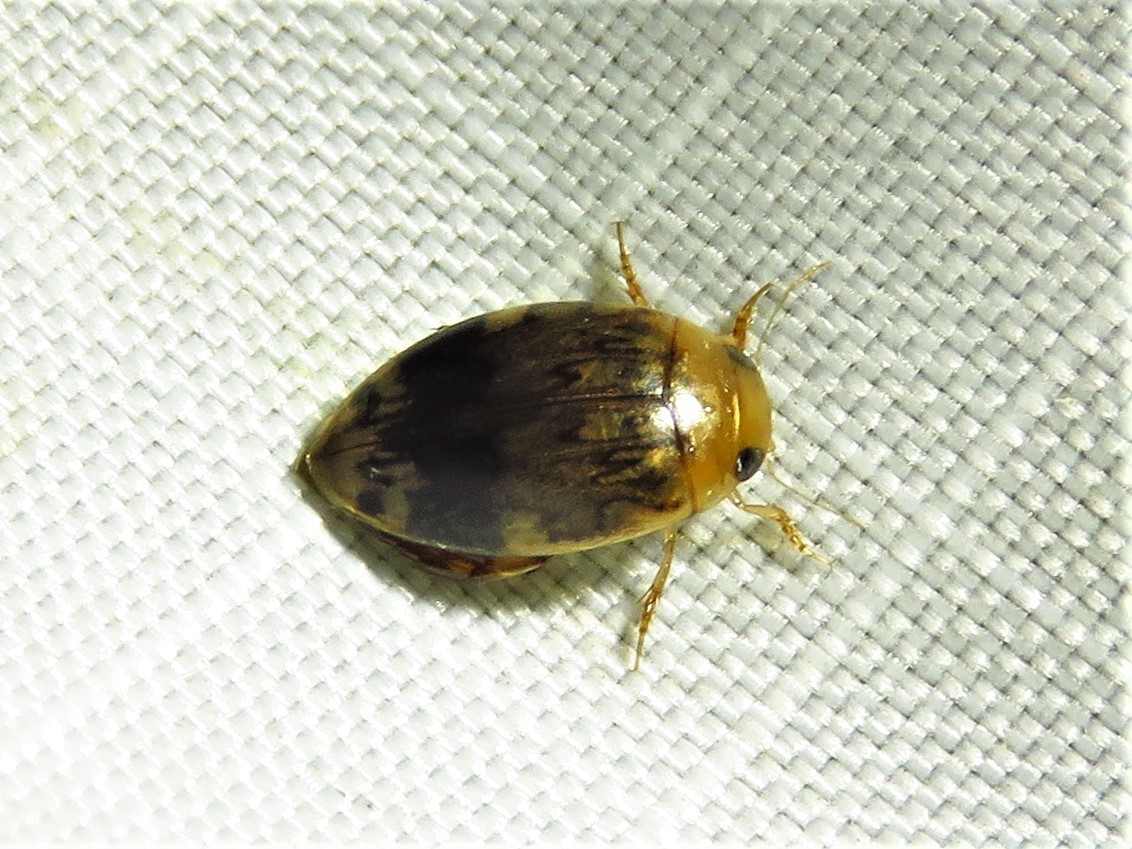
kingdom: Animalia
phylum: Arthropoda
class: Insecta
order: Coleoptera
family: Dytiscidae
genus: Laccophilus
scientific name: Laccophilus fasciatus
